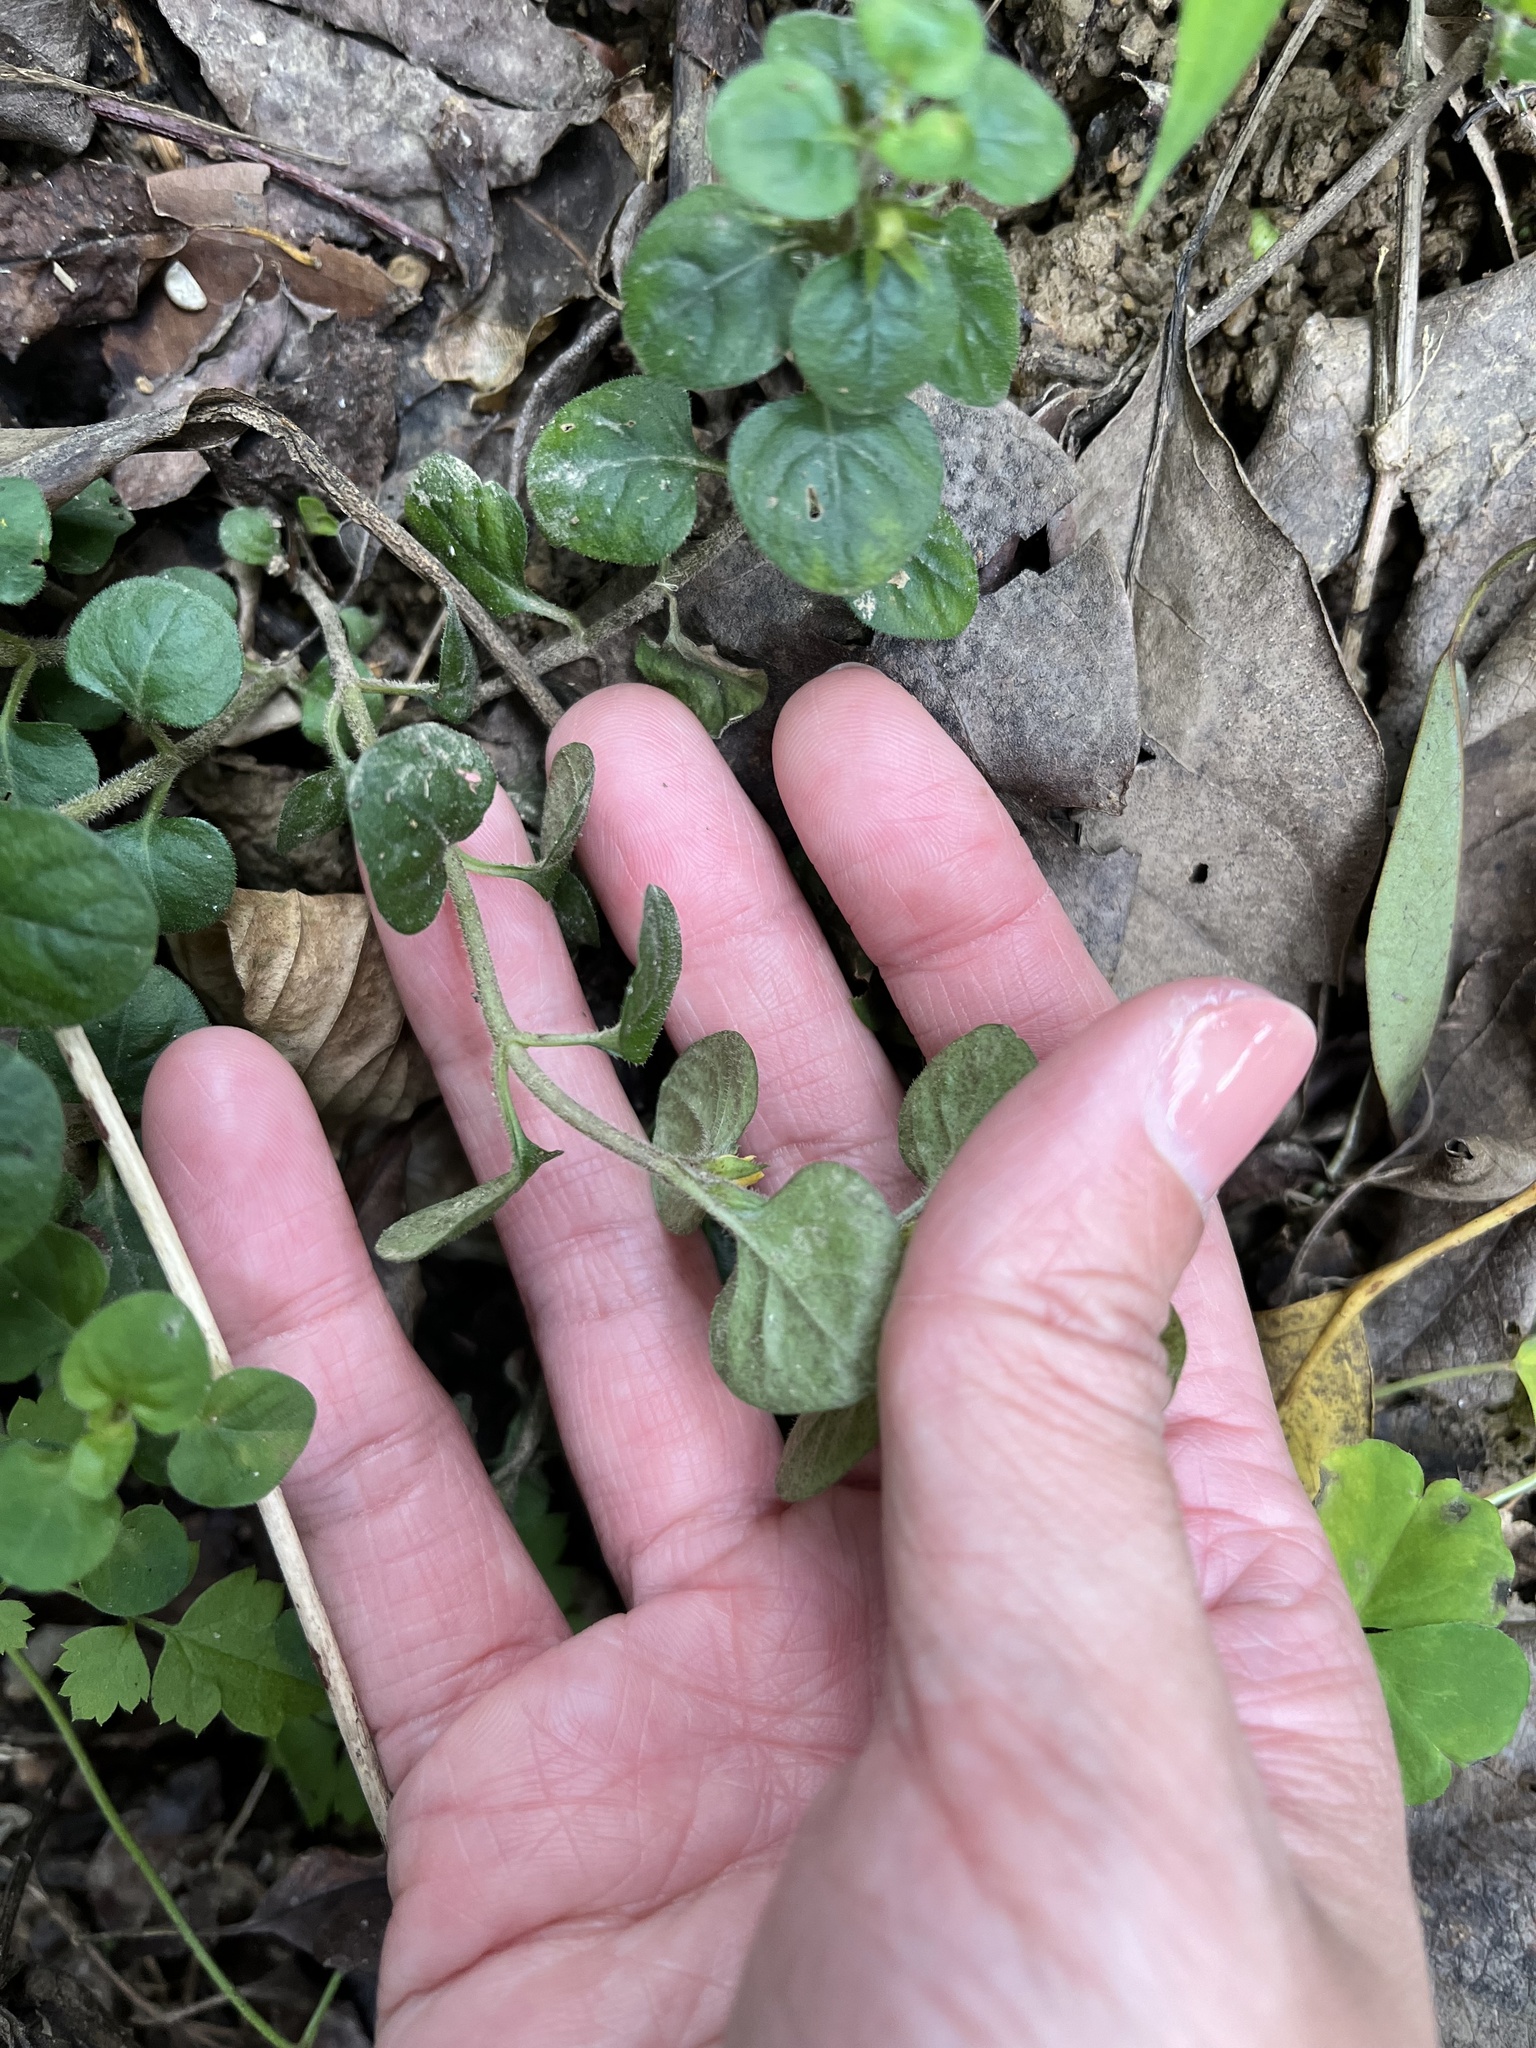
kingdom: Plantae
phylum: Tracheophyta
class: Magnoliopsida
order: Ericales
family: Primulaceae
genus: Lysimachia
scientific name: Lysimachia japonica
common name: Japanese yellow loosestrife
